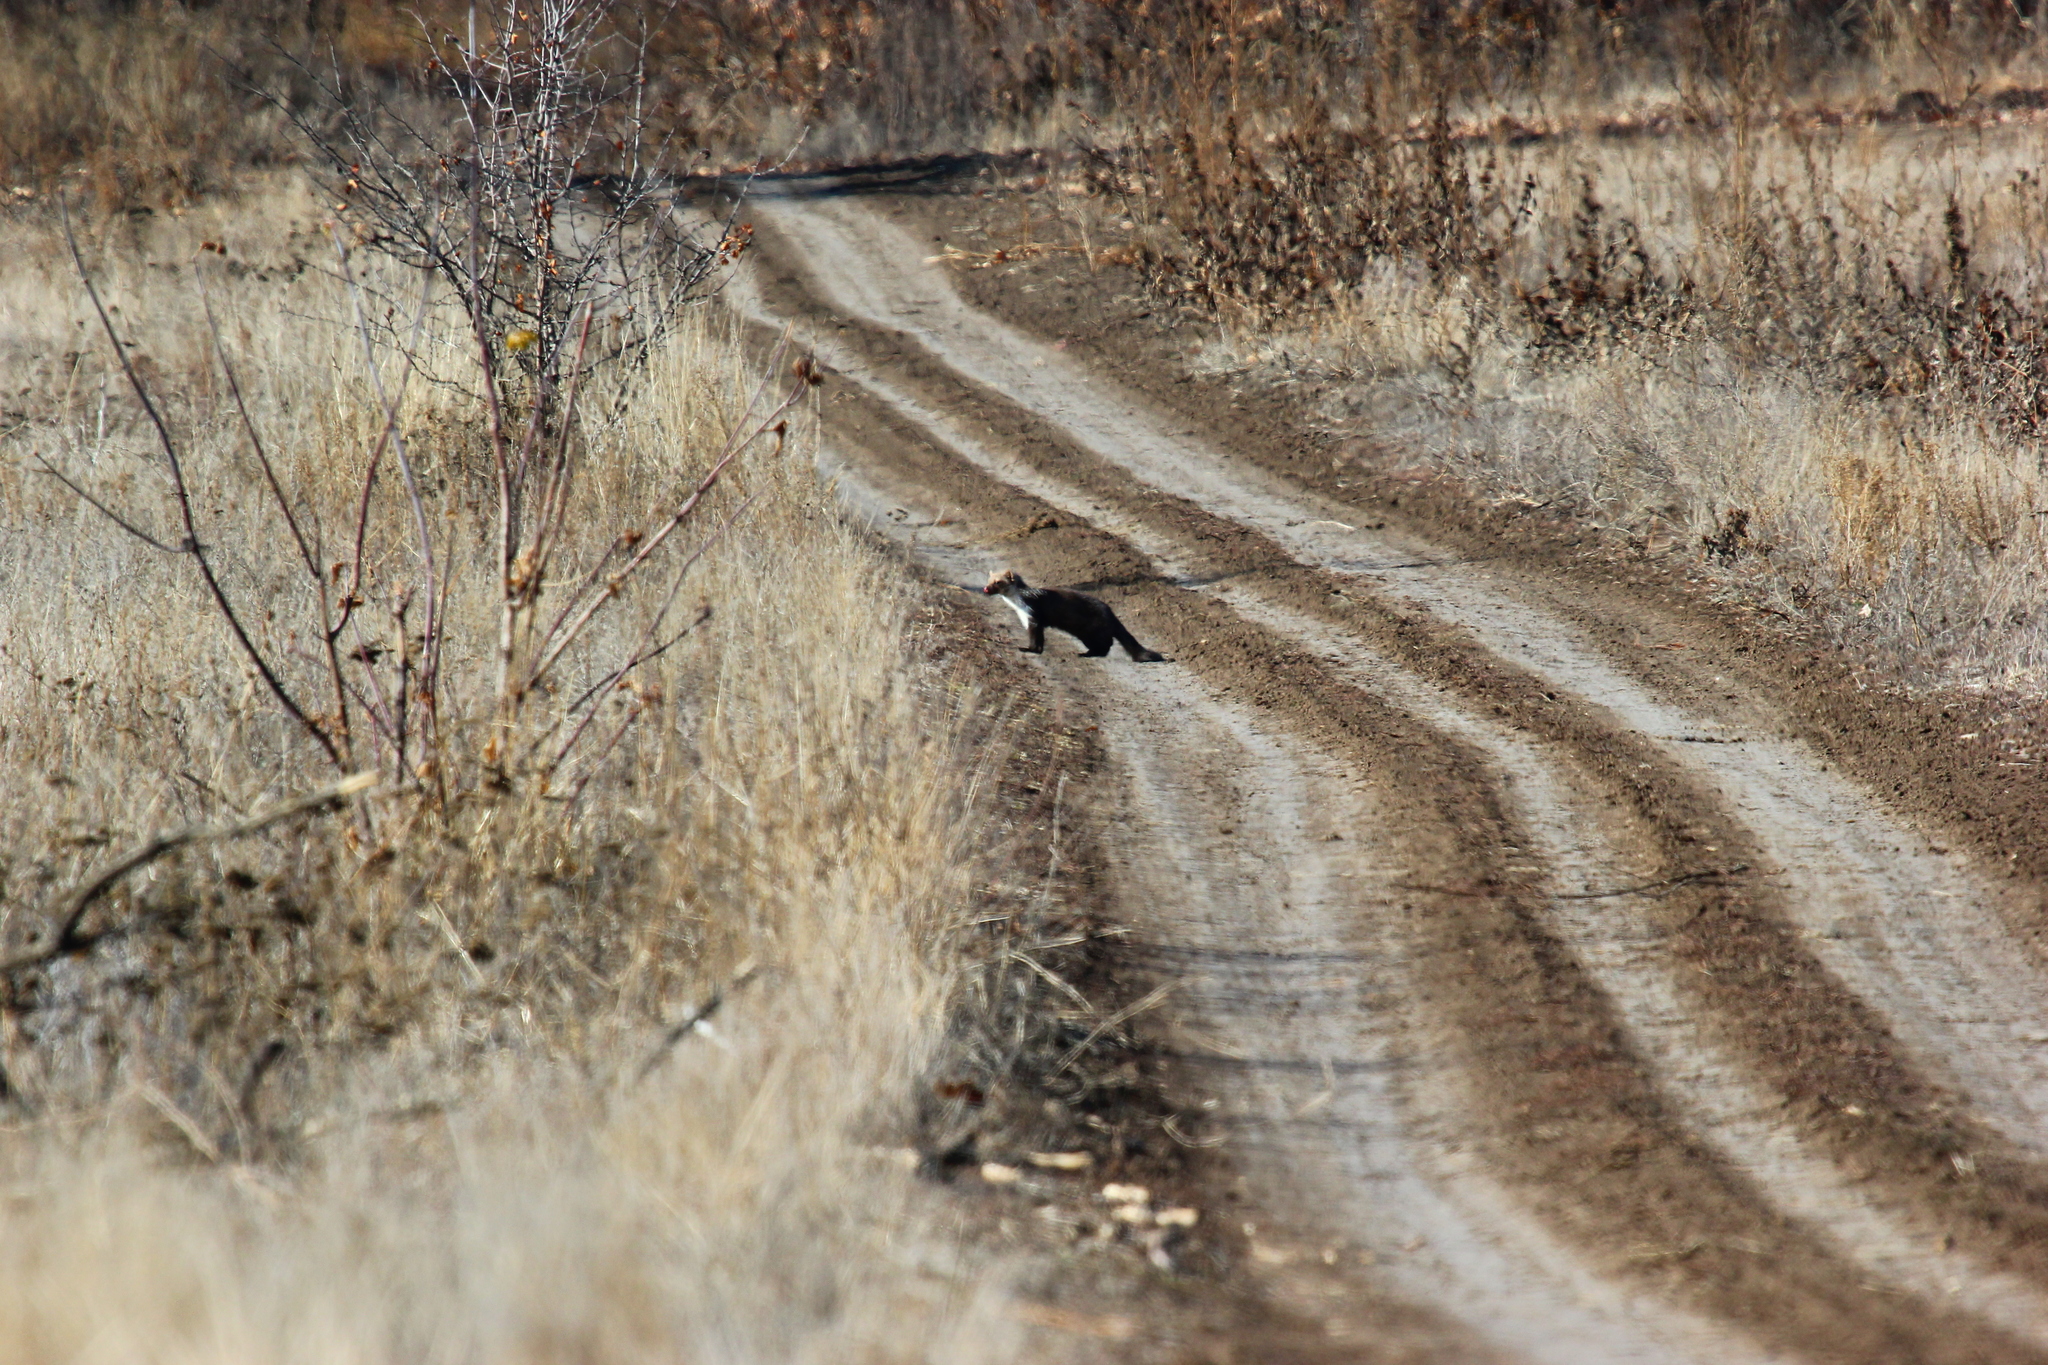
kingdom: Animalia
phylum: Chordata
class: Mammalia
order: Carnivora
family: Mustelidae
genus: Martes
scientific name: Martes foina
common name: Beech marten
